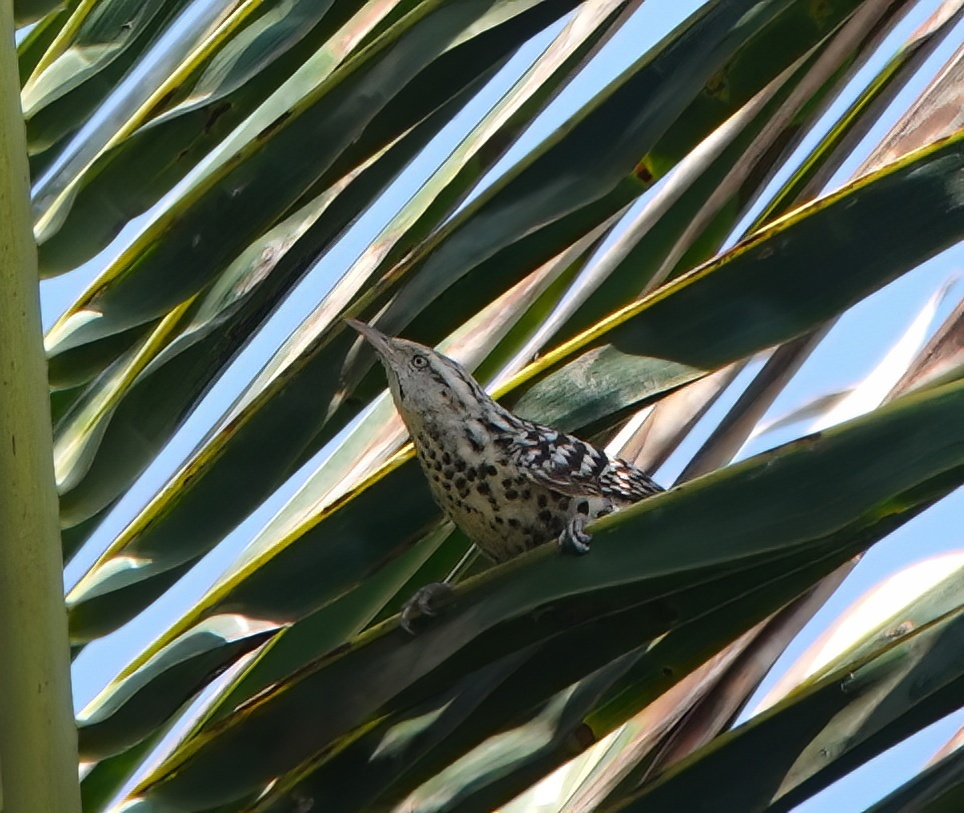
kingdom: Animalia
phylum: Chordata
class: Aves
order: Passeriformes
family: Troglodytidae
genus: Campylorhynchus
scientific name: Campylorhynchus nuchalis
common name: Stripe-backed wren
